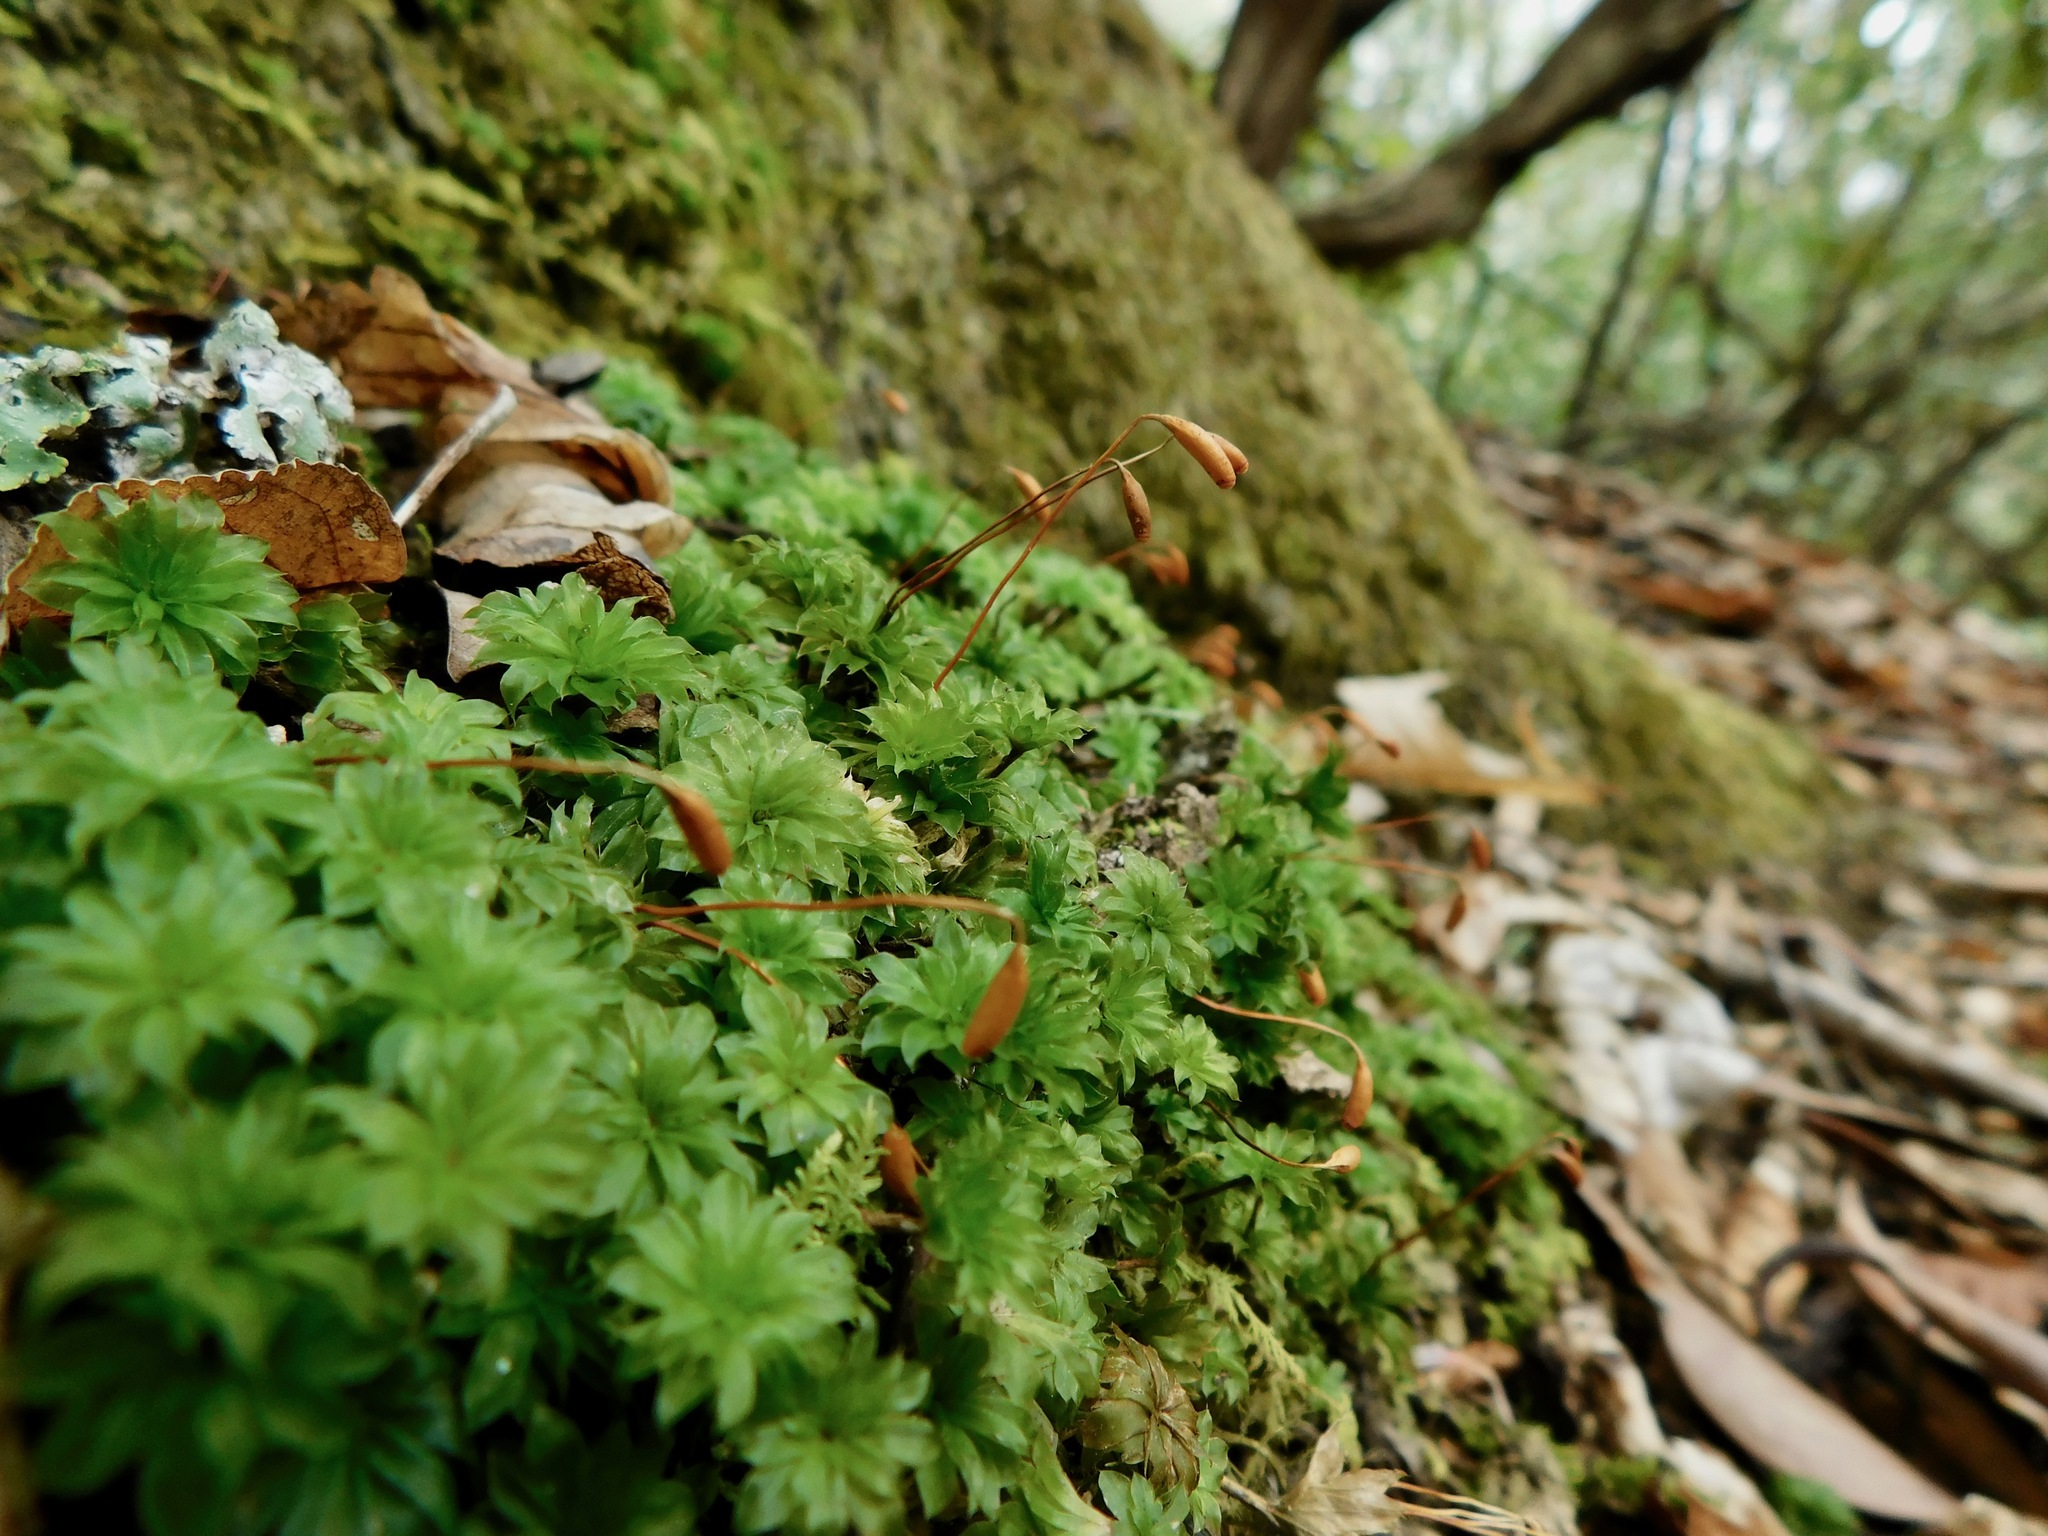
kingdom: Plantae
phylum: Bryophyta
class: Bryopsida
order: Bryales
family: Bryaceae
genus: Rhodobryum
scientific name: Rhodobryum ontariense
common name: Ontario rhodobryum moss
